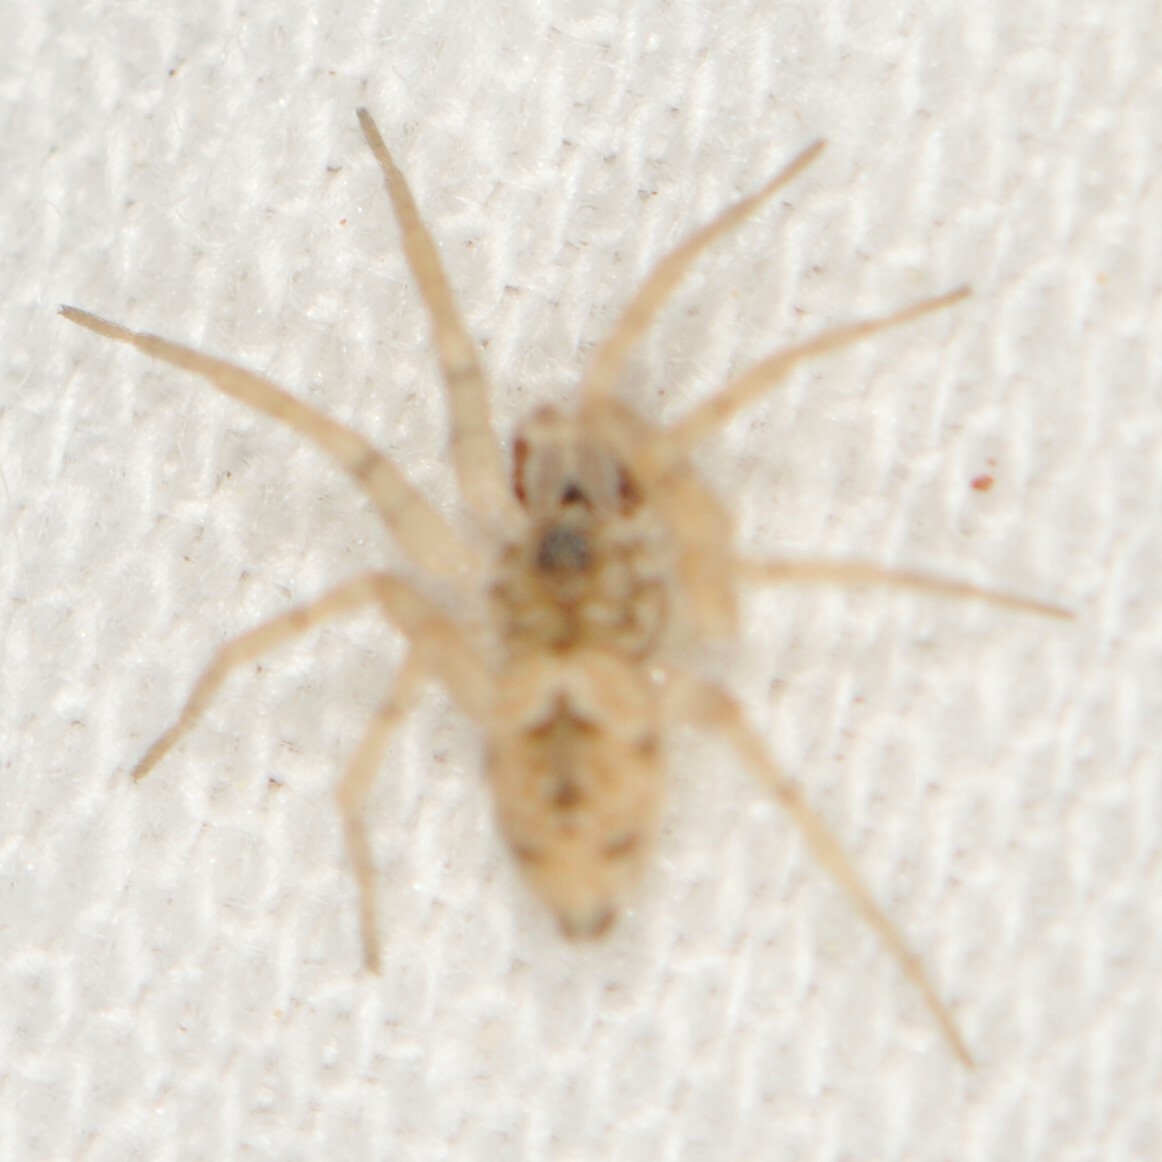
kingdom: Animalia
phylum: Arthropoda
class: Arachnida
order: Araneae
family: Oecobiidae
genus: Oecobius
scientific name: Oecobius
